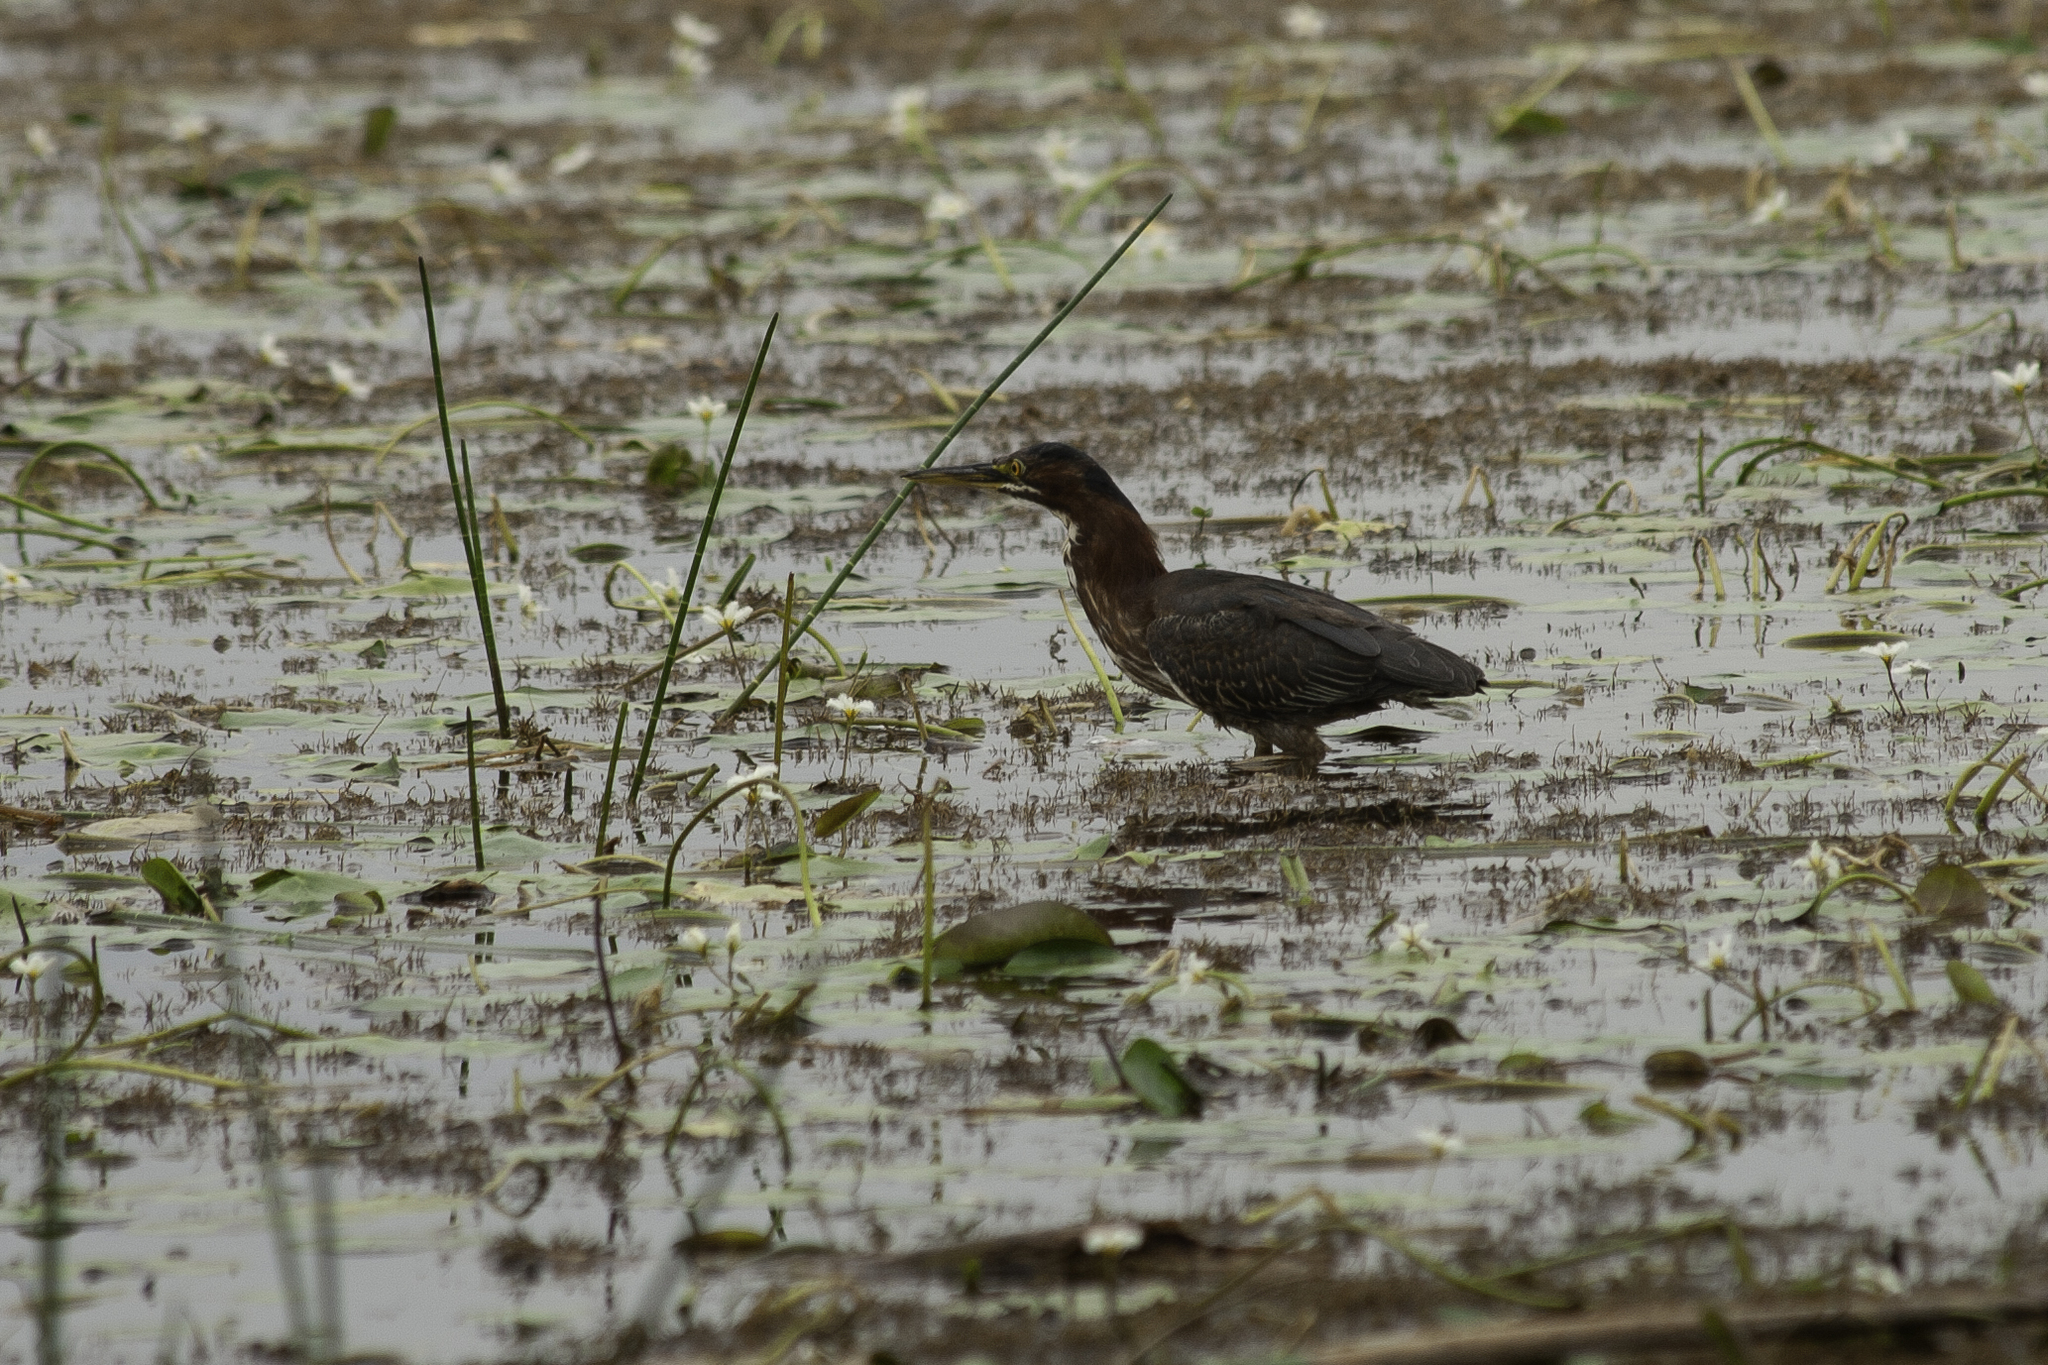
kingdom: Animalia
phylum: Chordata
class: Aves
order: Pelecaniformes
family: Ardeidae
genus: Butorides
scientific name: Butorides virescens
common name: Green heron
